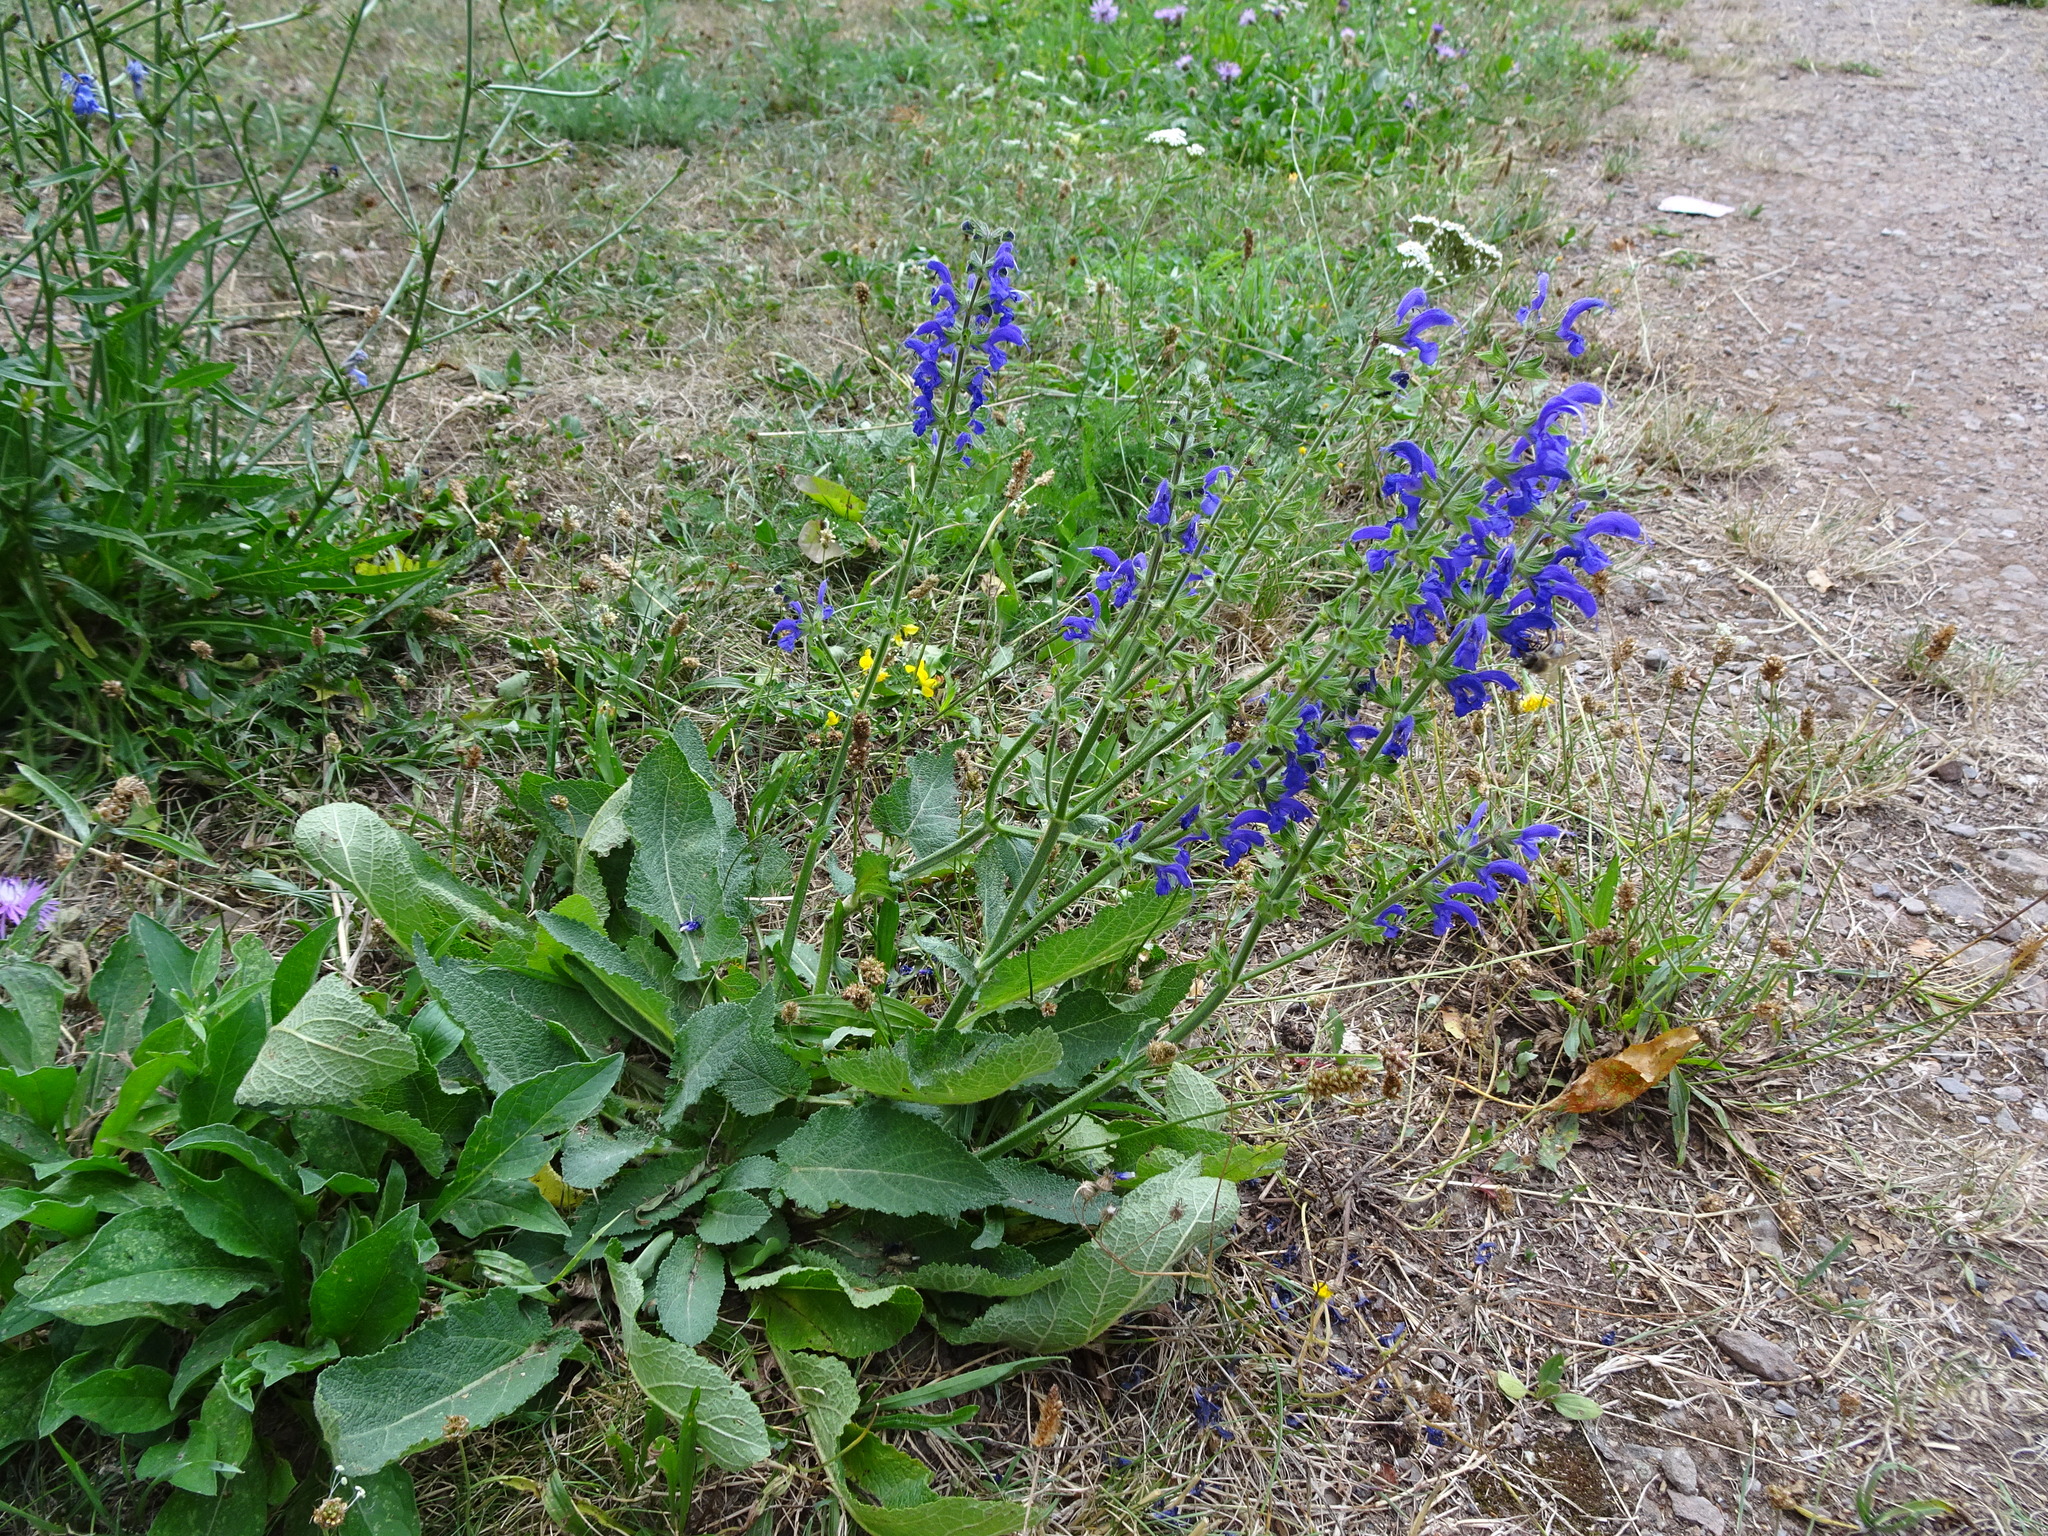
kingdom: Plantae
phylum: Tracheophyta
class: Magnoliopsida
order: Lamiales
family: Lamiaceae
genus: Salvia
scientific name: Salvia pratensis
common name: Meadow sage
